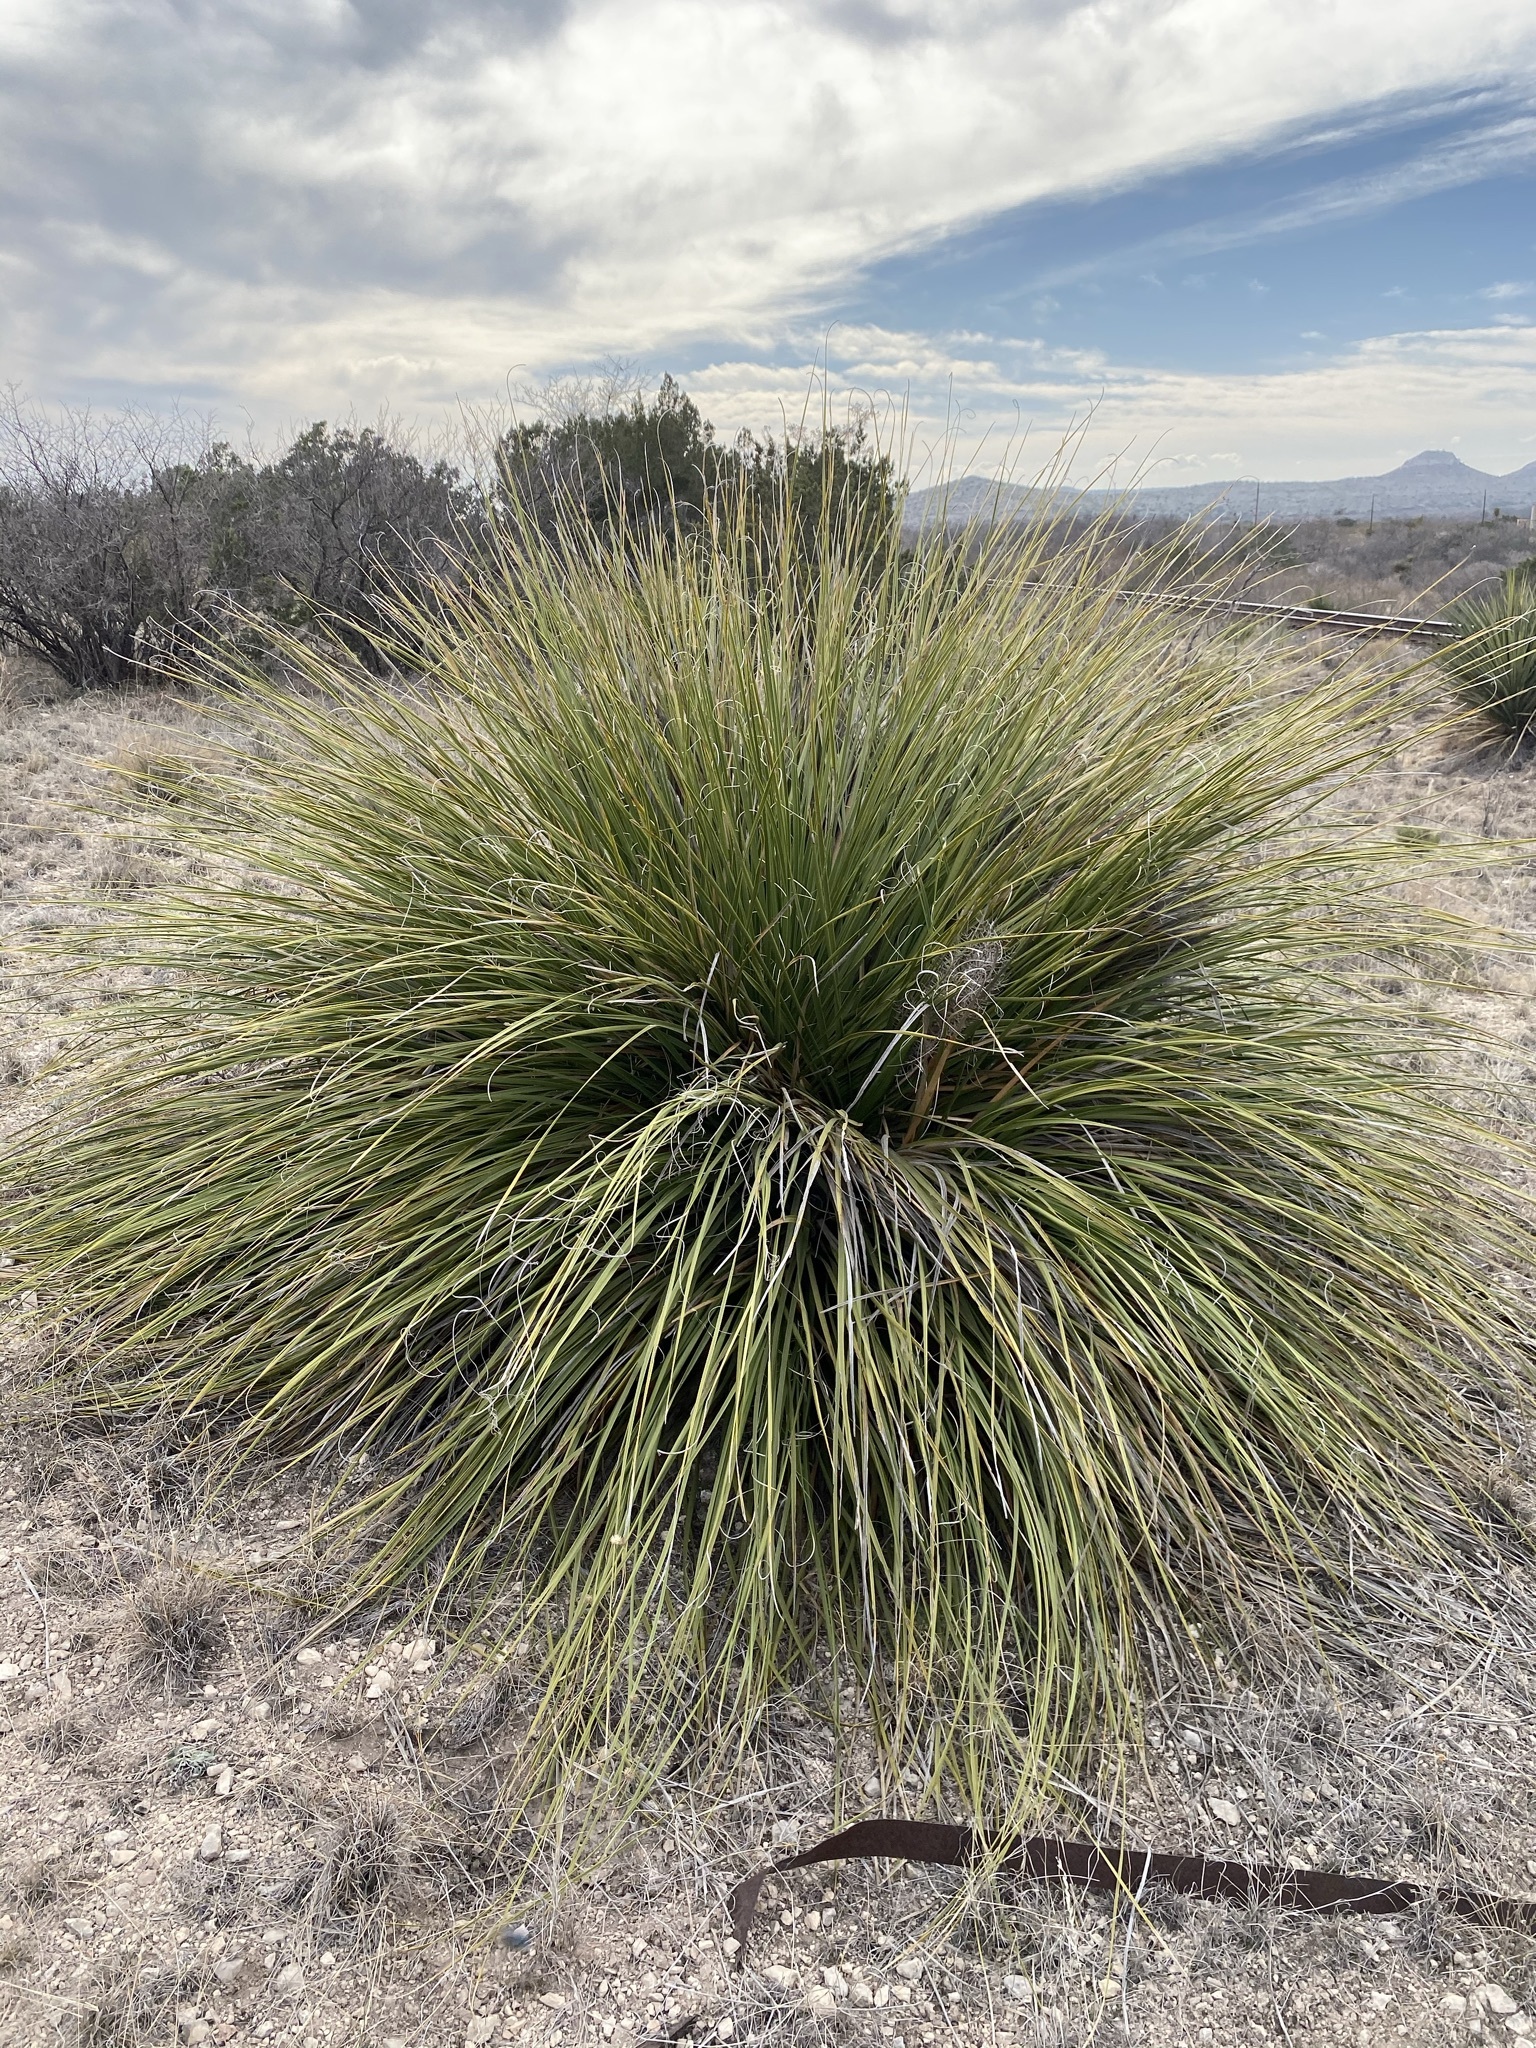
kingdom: Plantae
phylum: Tracheophyta
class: Liliopsida
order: Asparagales
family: Asparagaceae
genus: Nolina
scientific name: Nolina erumpens
